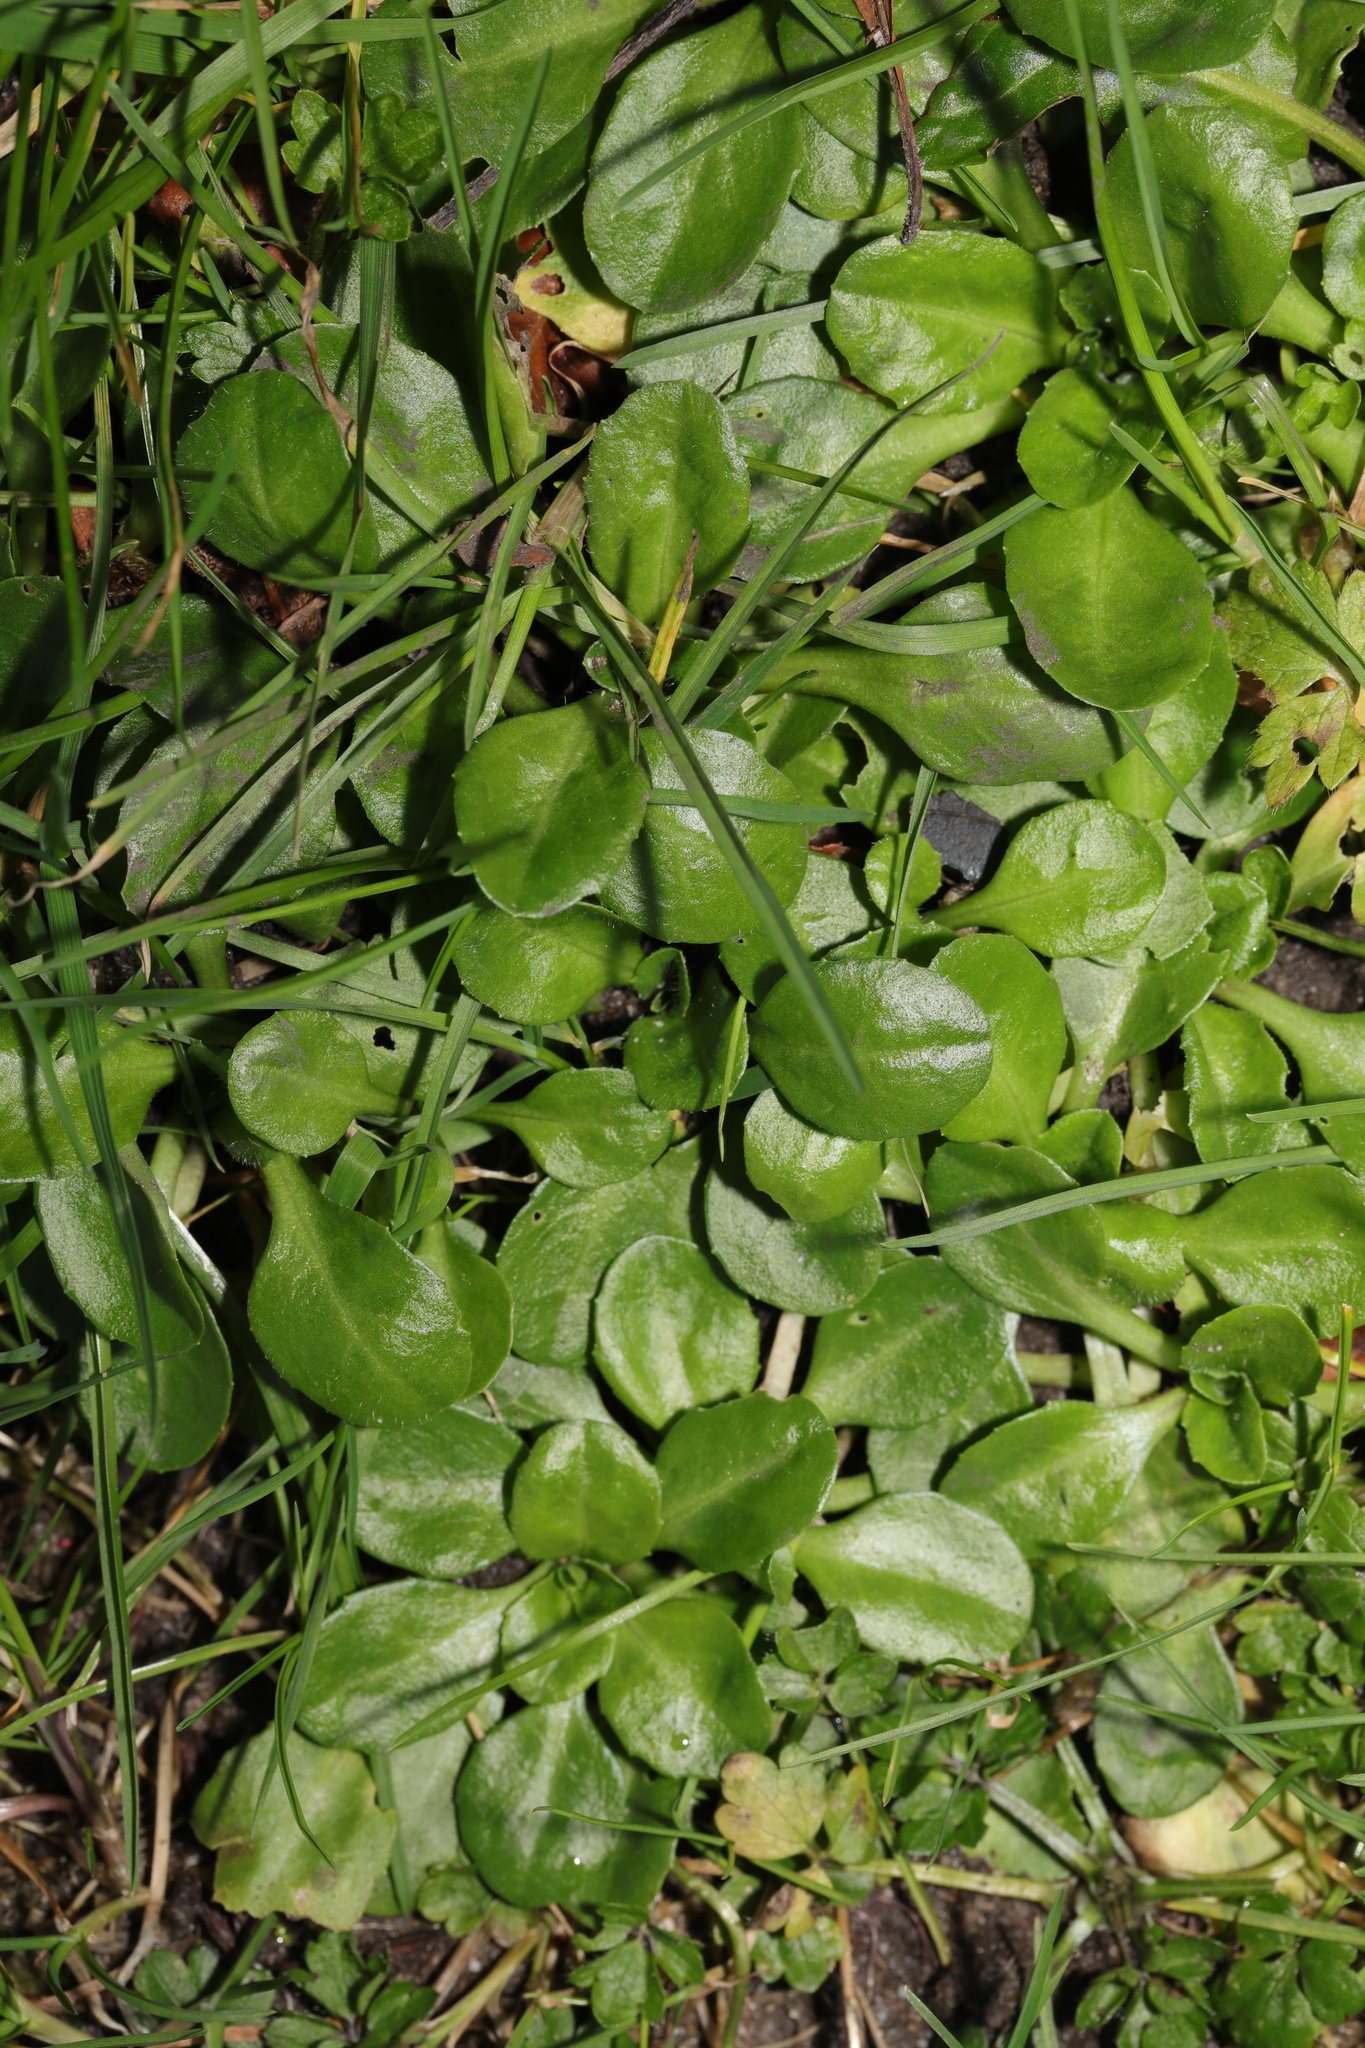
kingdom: Plantae
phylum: Tracheophyta
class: Magnoliopsida
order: Asterales
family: Asteraceae
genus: Bellis
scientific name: Bellis perennis
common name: Lawndaisy
